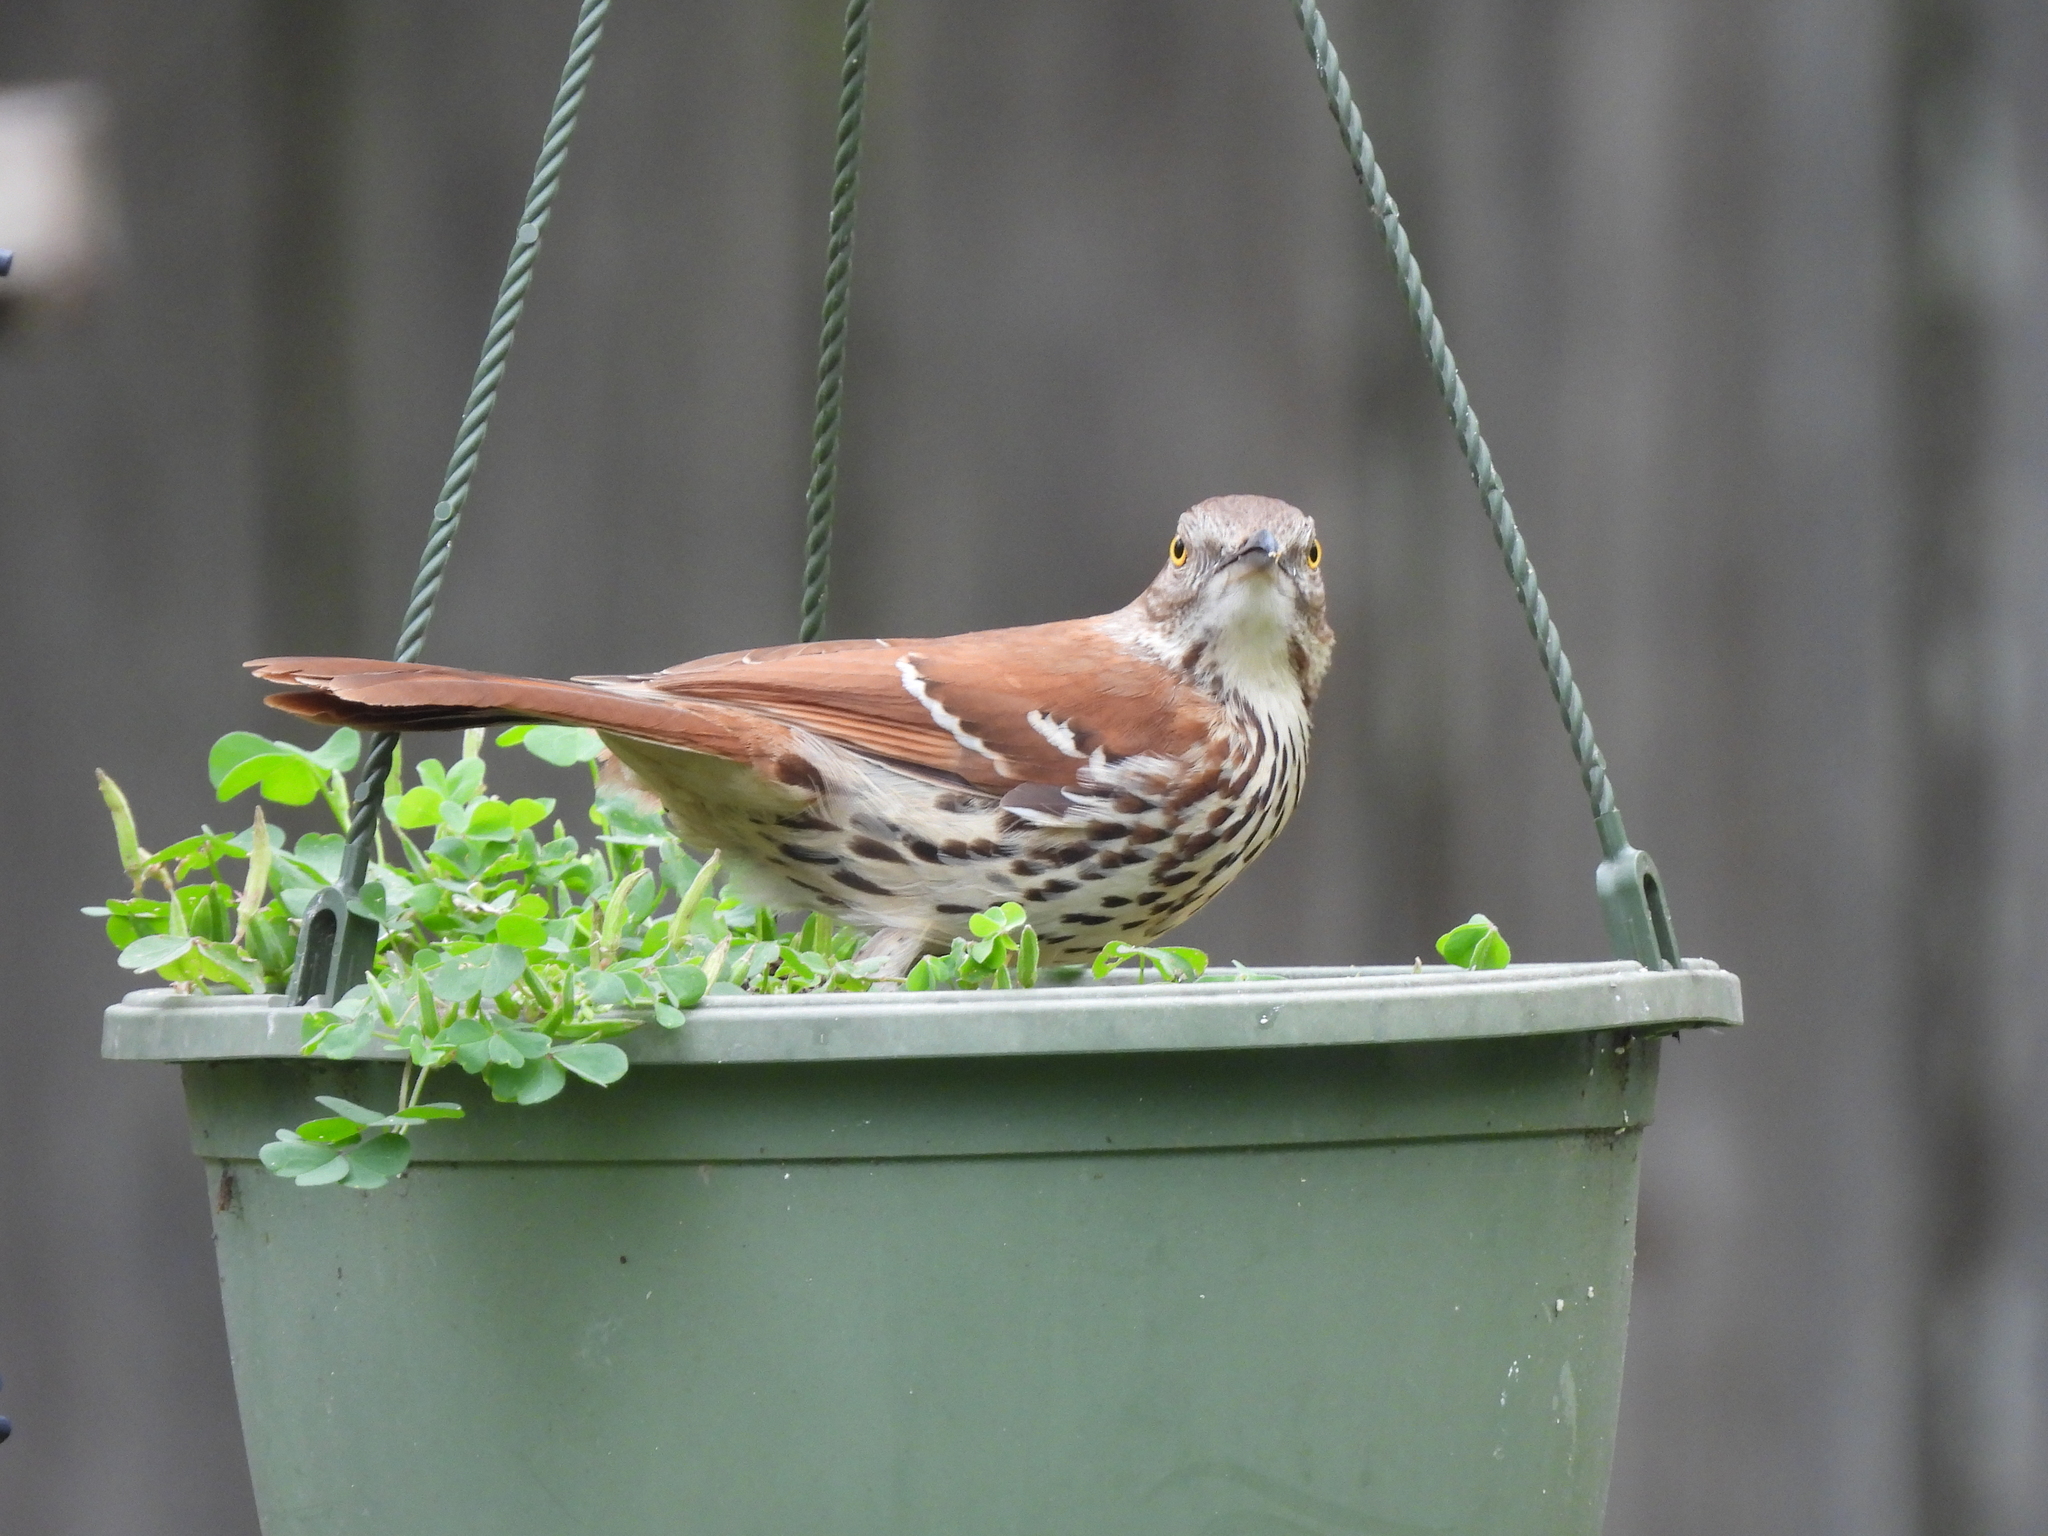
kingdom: Animalia
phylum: Chordata
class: Aves
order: Passeriformes
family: Mimidae
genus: Toxostoma
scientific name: Toxostoma rufum
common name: Brown thrasher
